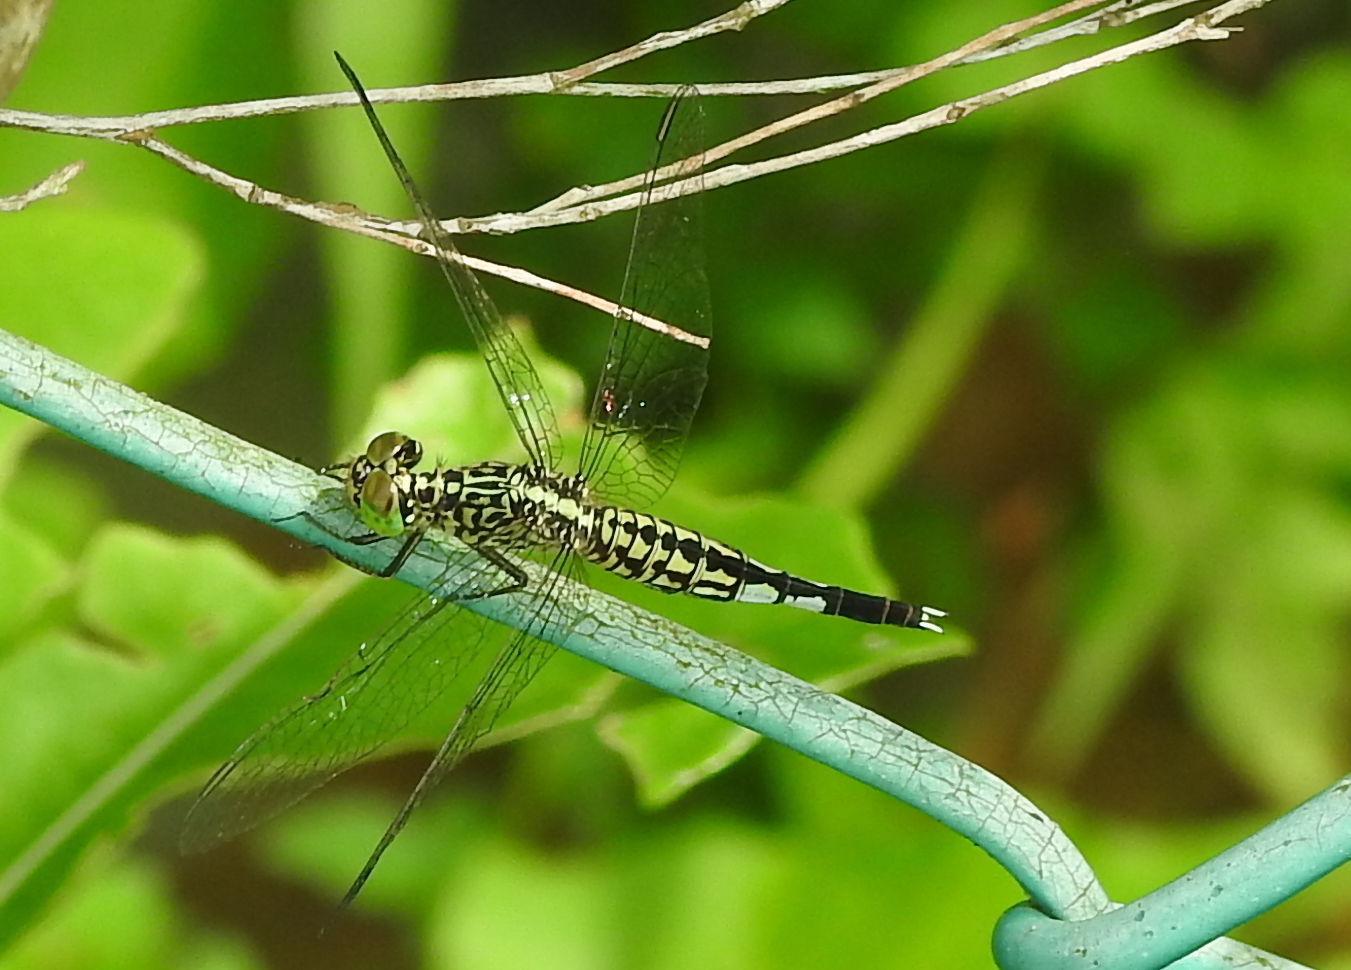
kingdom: Animalia
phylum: Arthropoda
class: Insecta
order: Odonata
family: Libellulidae
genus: Acisoma
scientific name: Acisoma panorpoides
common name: Asian pintail
